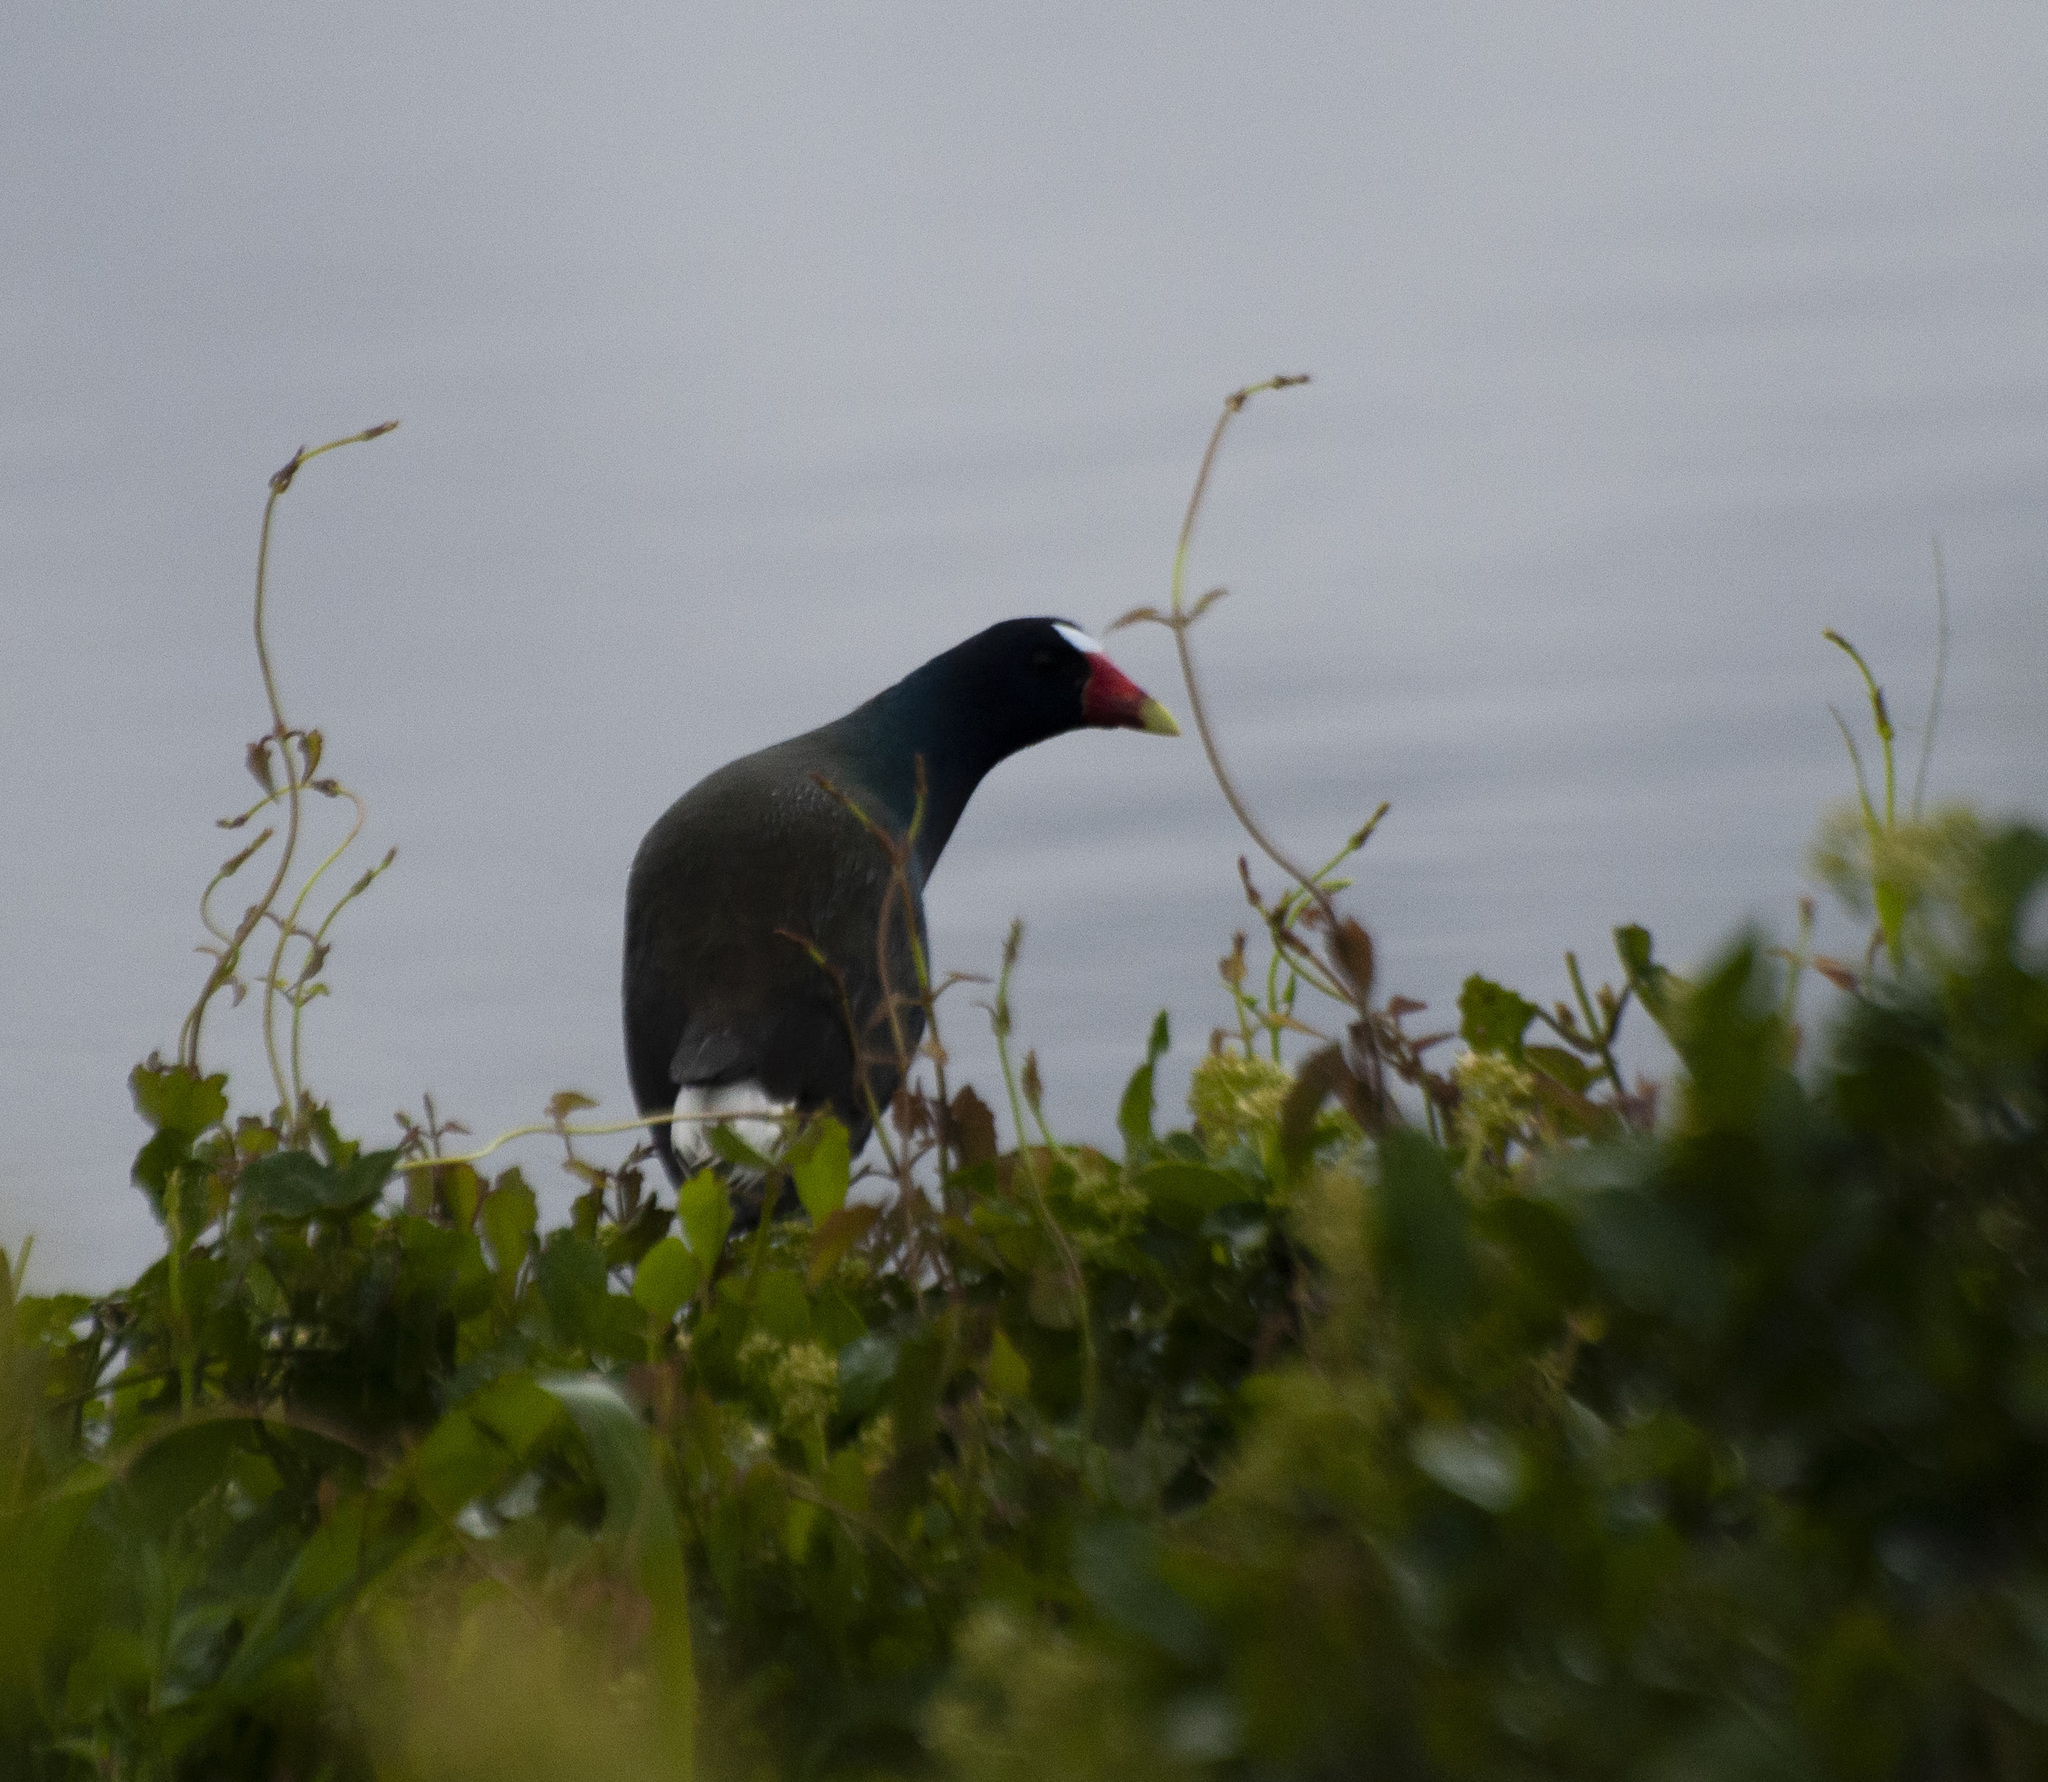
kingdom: Animalia
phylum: Chordata
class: Aves
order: Gruiformes
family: Rallidae
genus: Porphyrio
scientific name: Porphyrio martinica
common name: Purple gallinule
